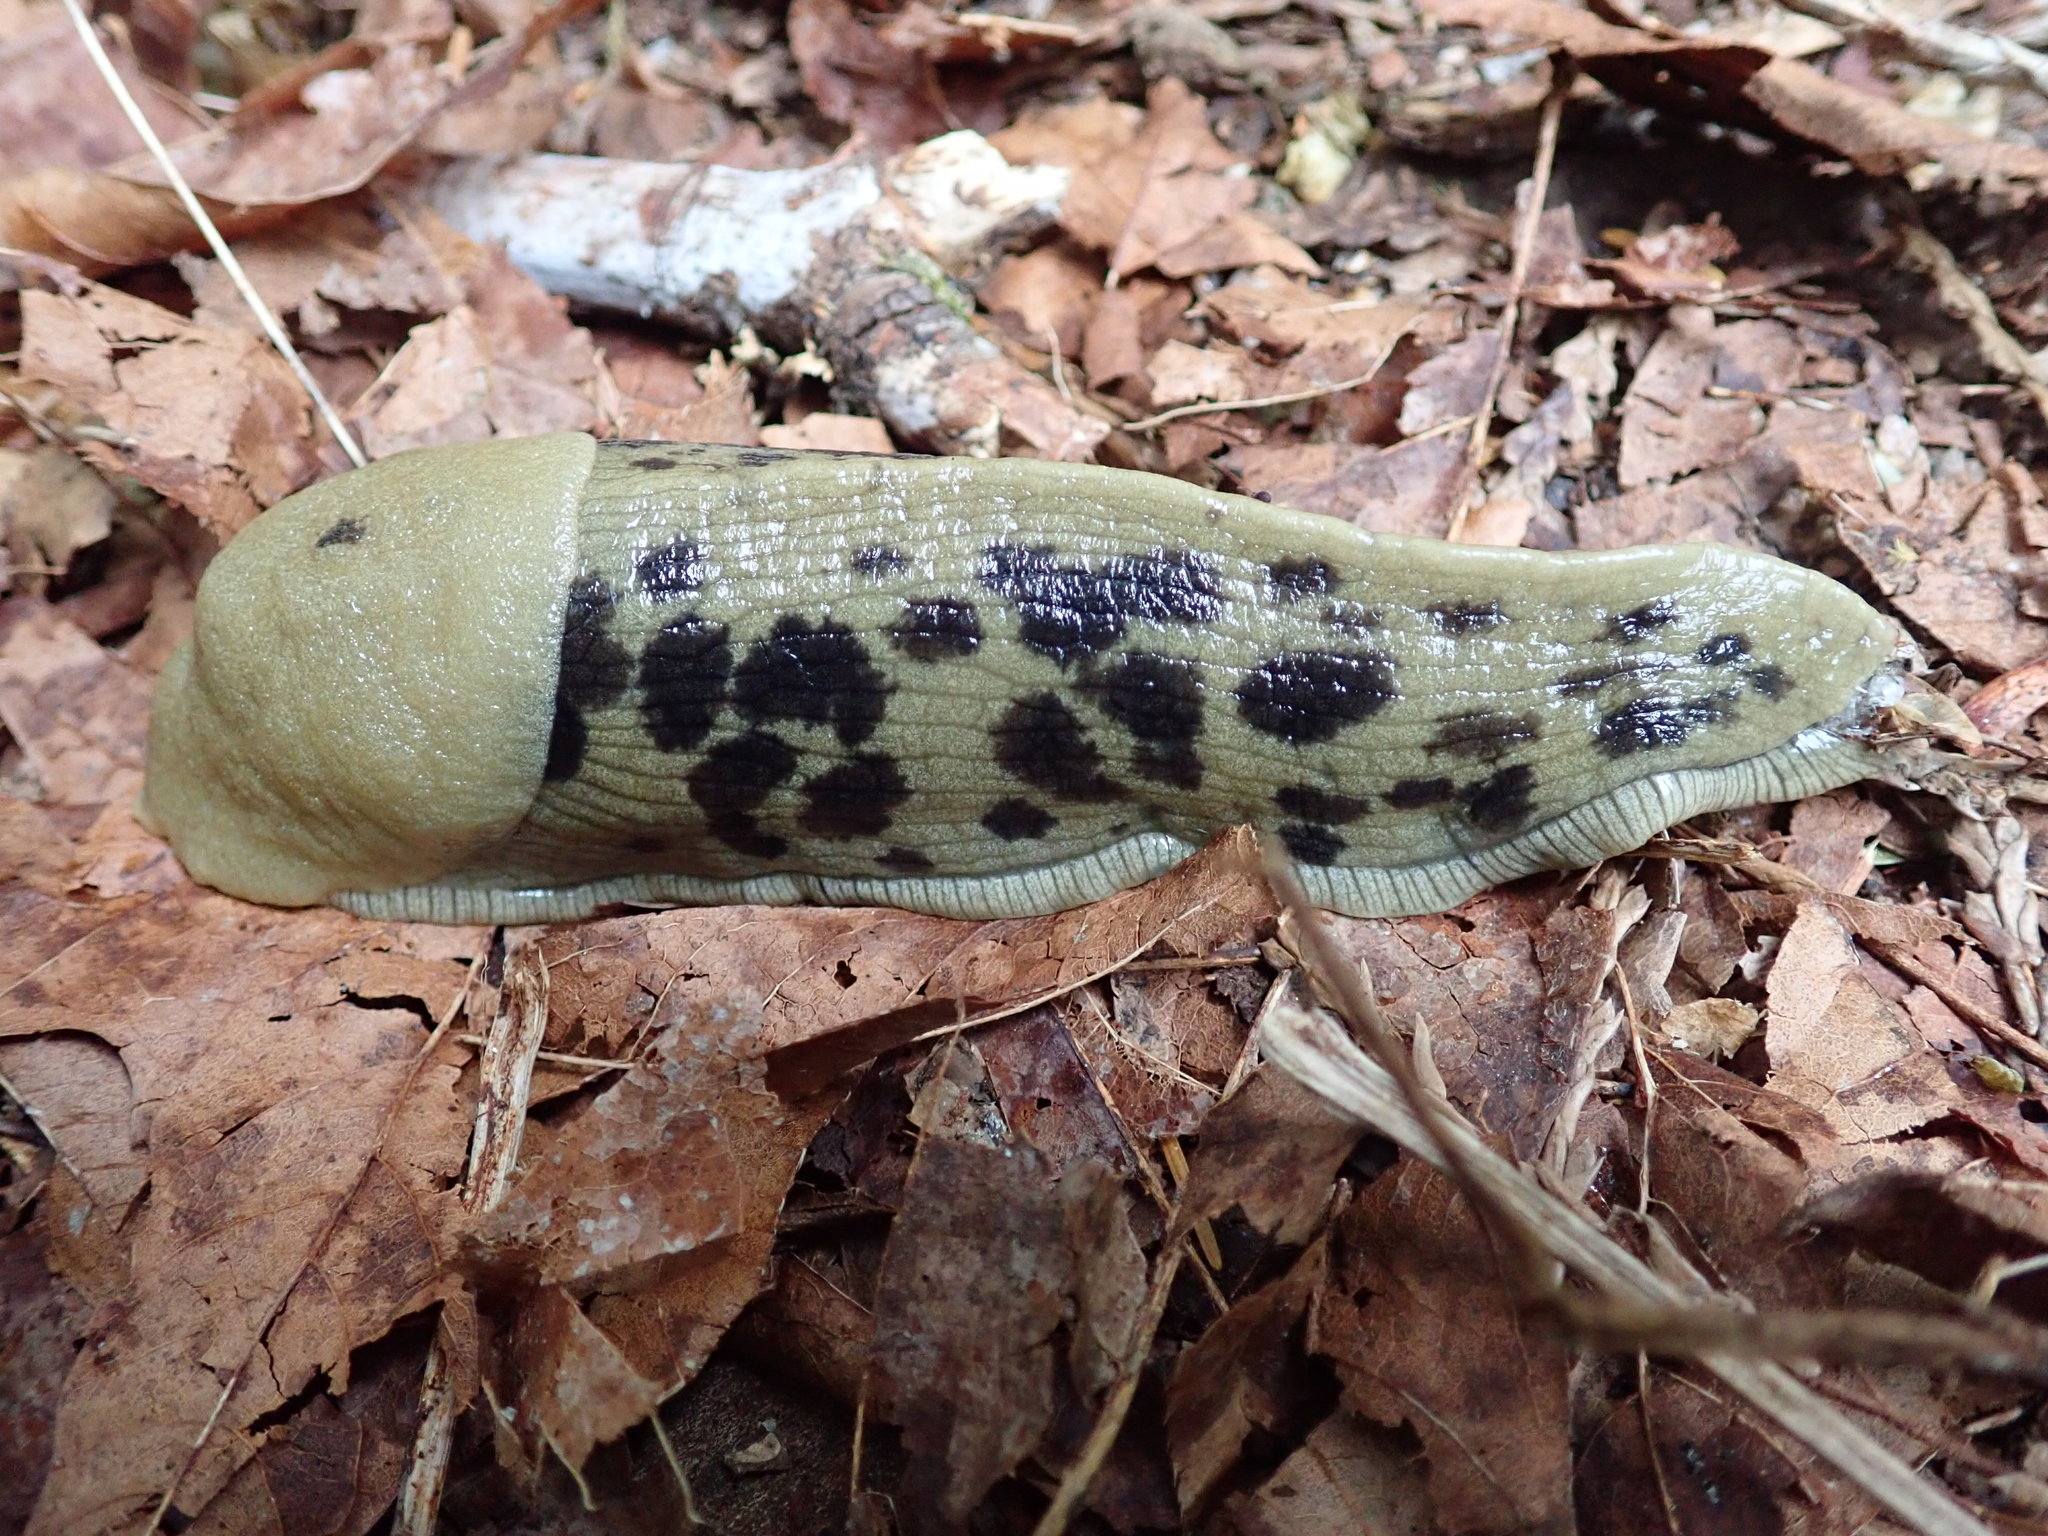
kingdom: Animalia
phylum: Mollusca
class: Gastropoda
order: Stylommatophora
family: Ariolimacidae
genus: Ariolimax
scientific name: Ariolimax columbianus
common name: Pacific banana slug
